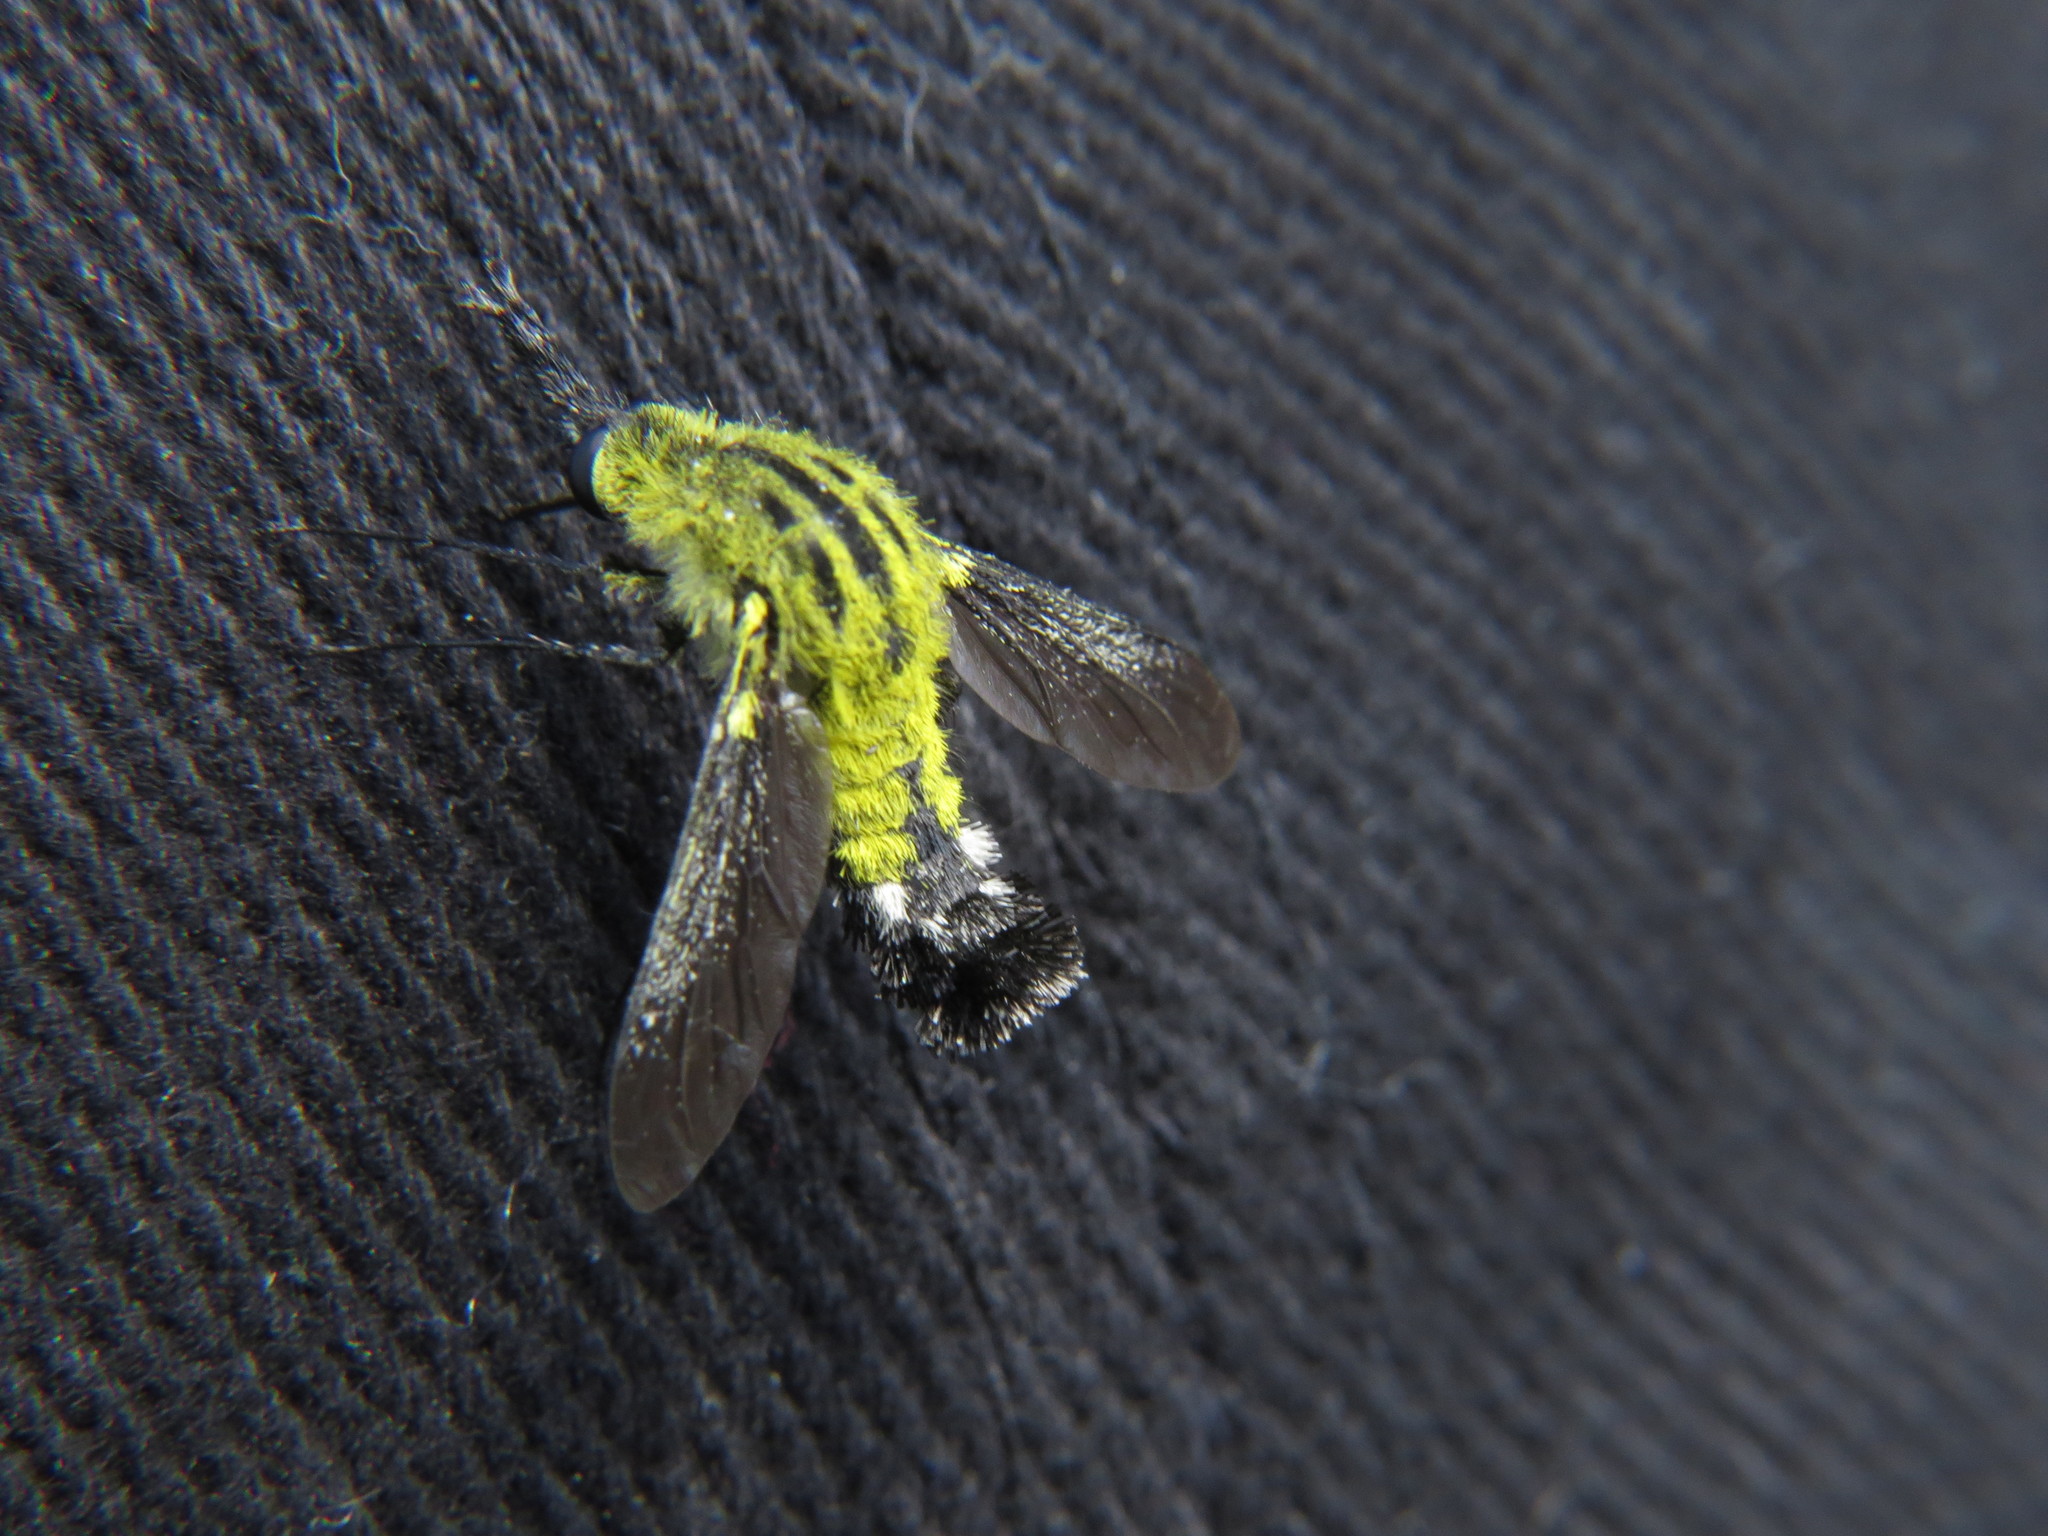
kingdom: Animalia
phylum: Arthropoda
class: Insecta
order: Diptera
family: Bombyliidae
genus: Lepidophora
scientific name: Lepidophora lutea
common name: Hunchback bee fly
